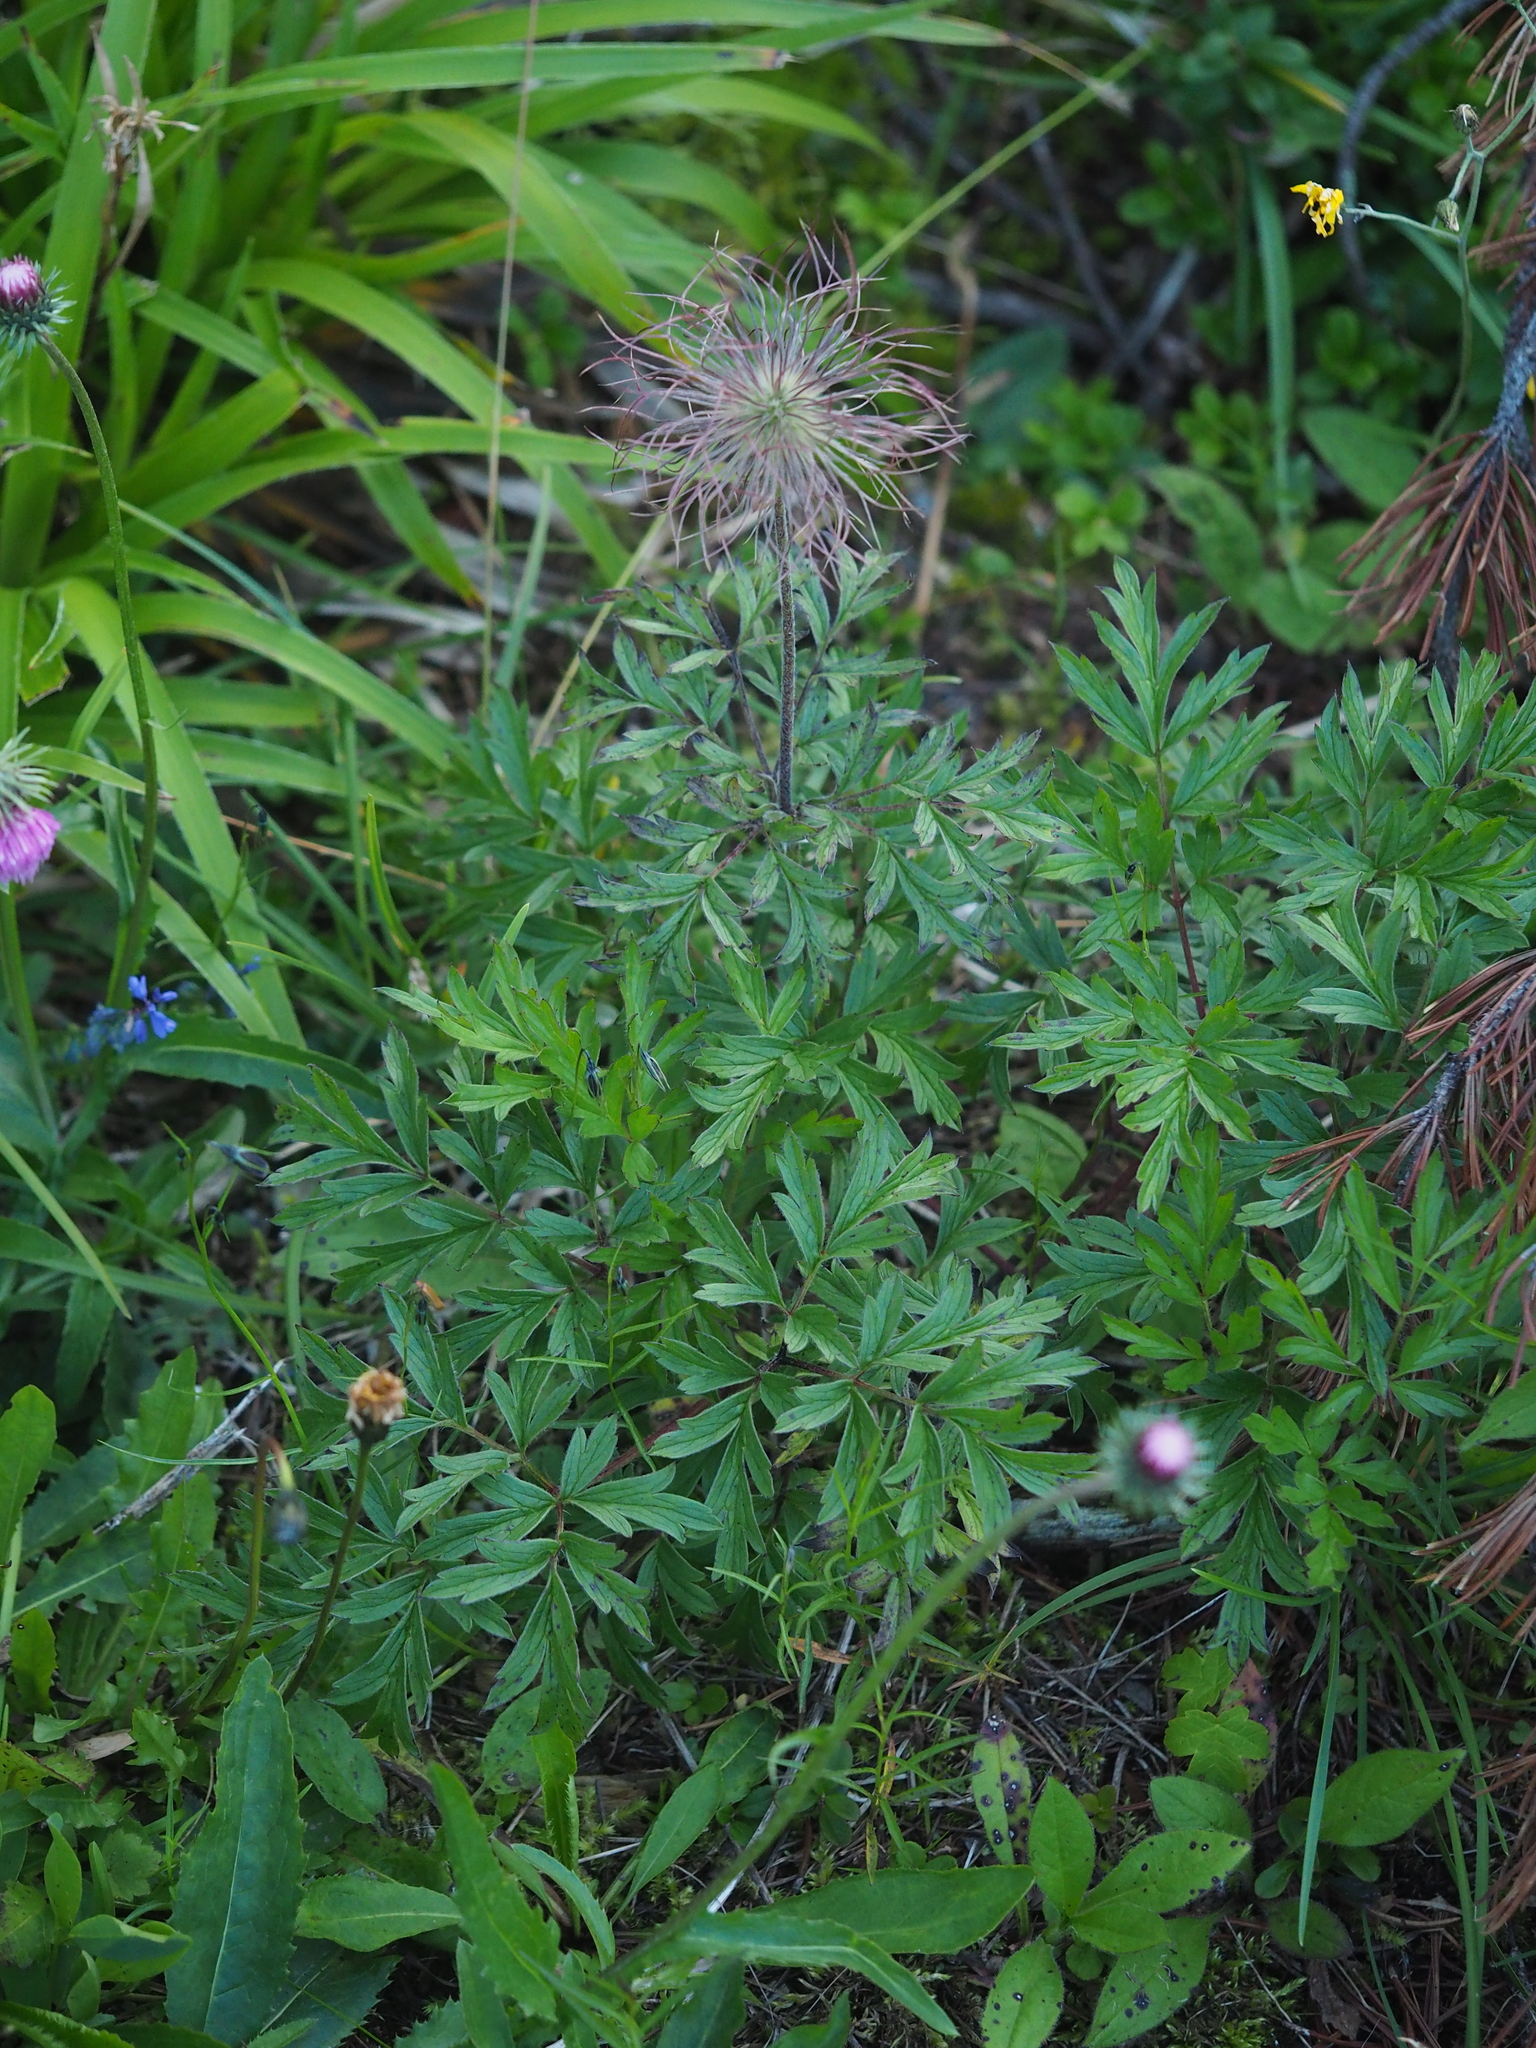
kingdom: Plantae
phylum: Tracheophyta
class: Magnoliopsida
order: Ranunculales
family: Ranunculaceae
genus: Pulsatilla
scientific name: Pulsatilla alpina
